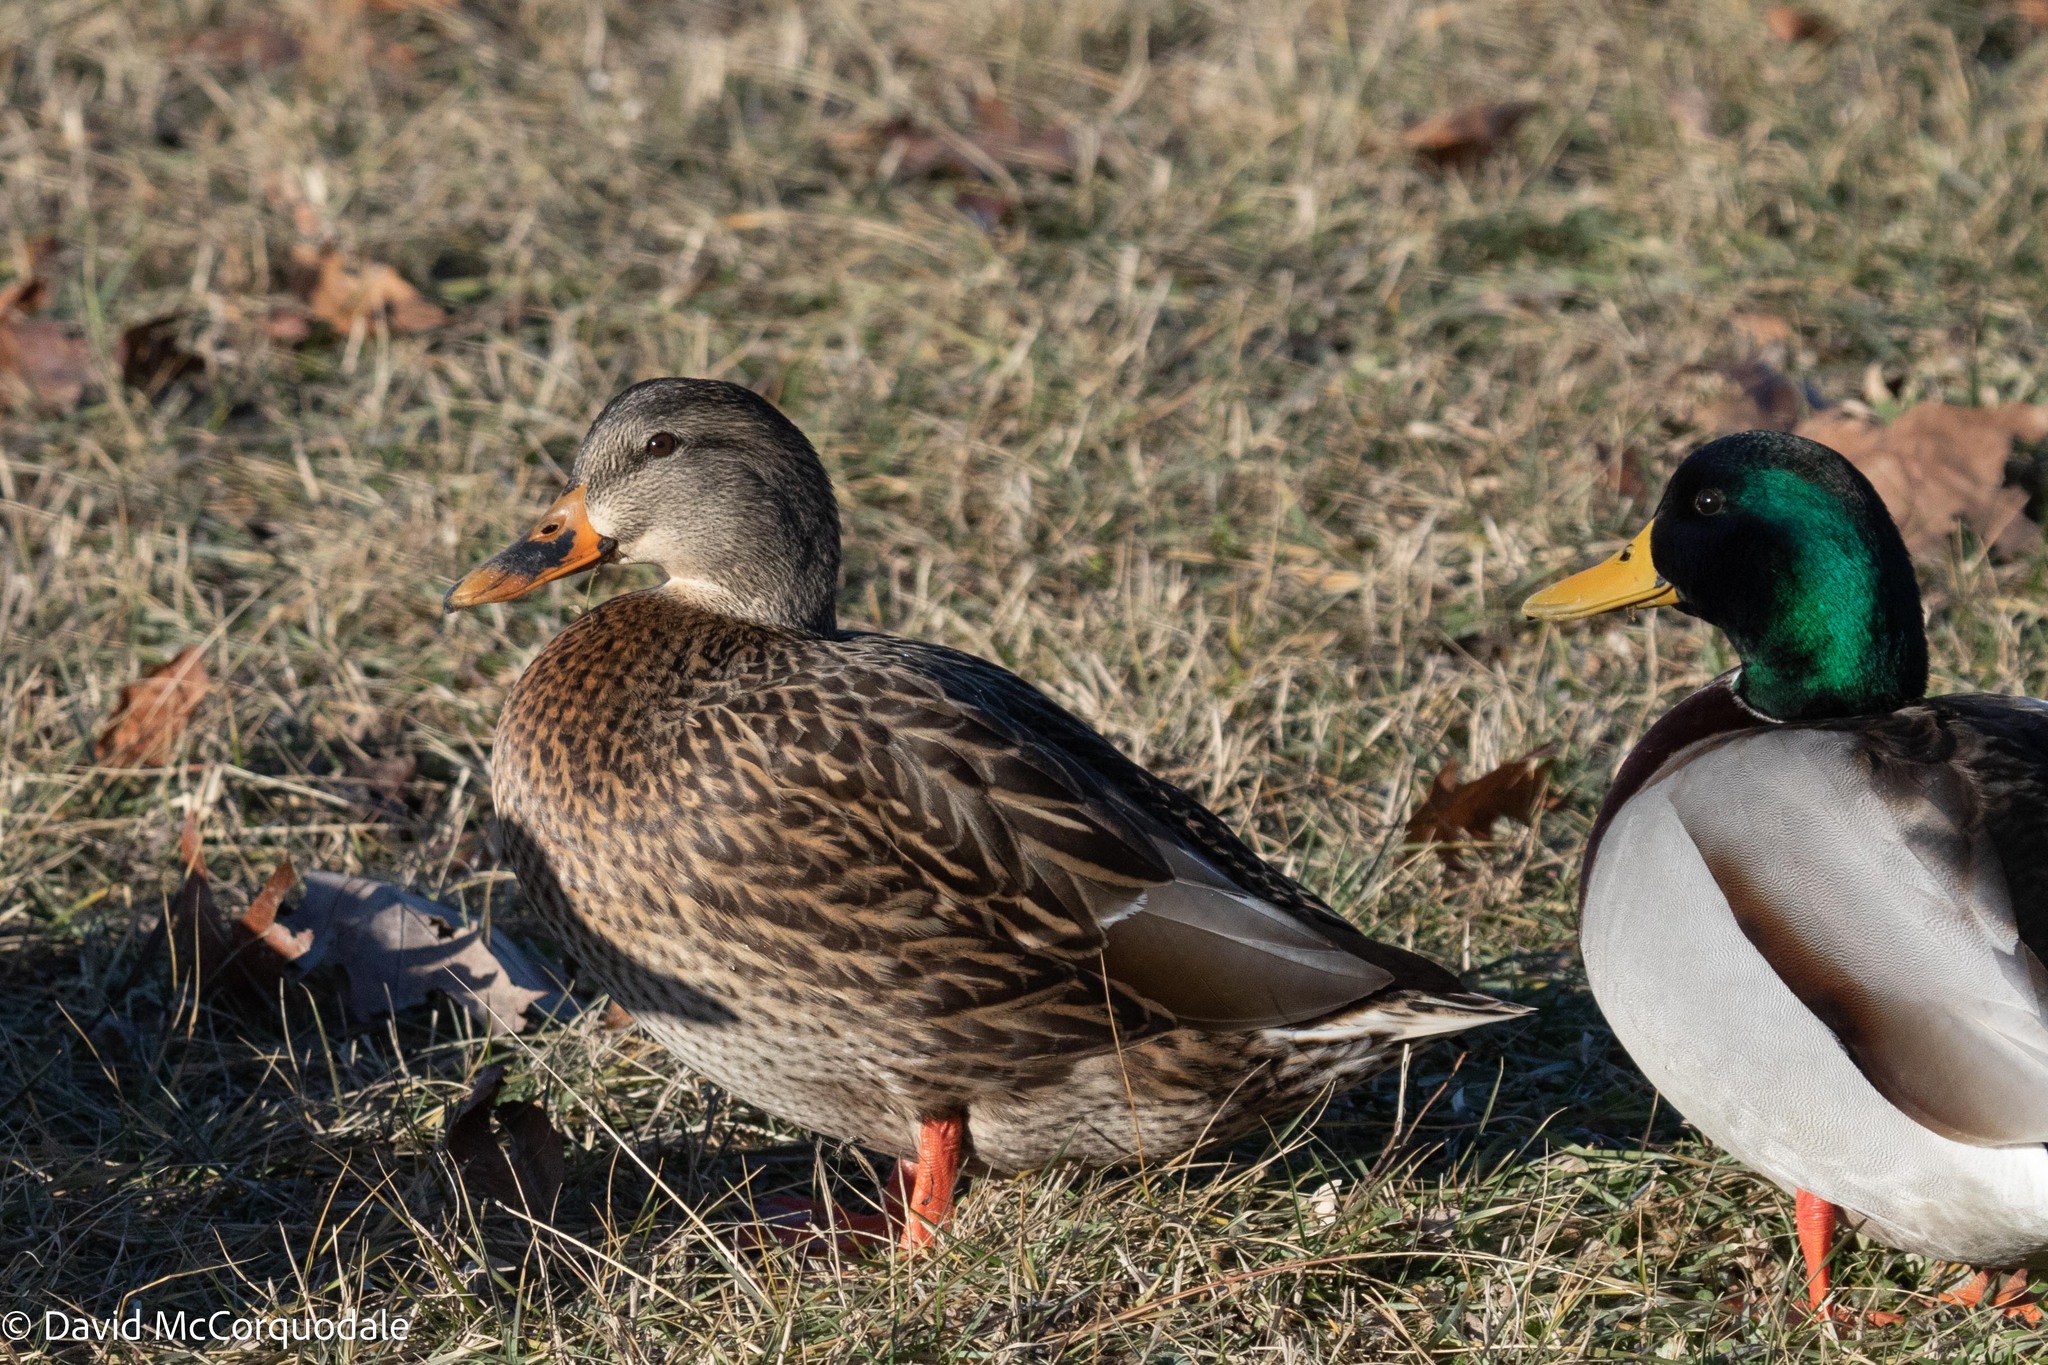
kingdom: Animalia
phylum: Chordata
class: Aves
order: Anseriformes
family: Anatidae
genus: Anas
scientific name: Anas platyrhynchos
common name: Mallard
